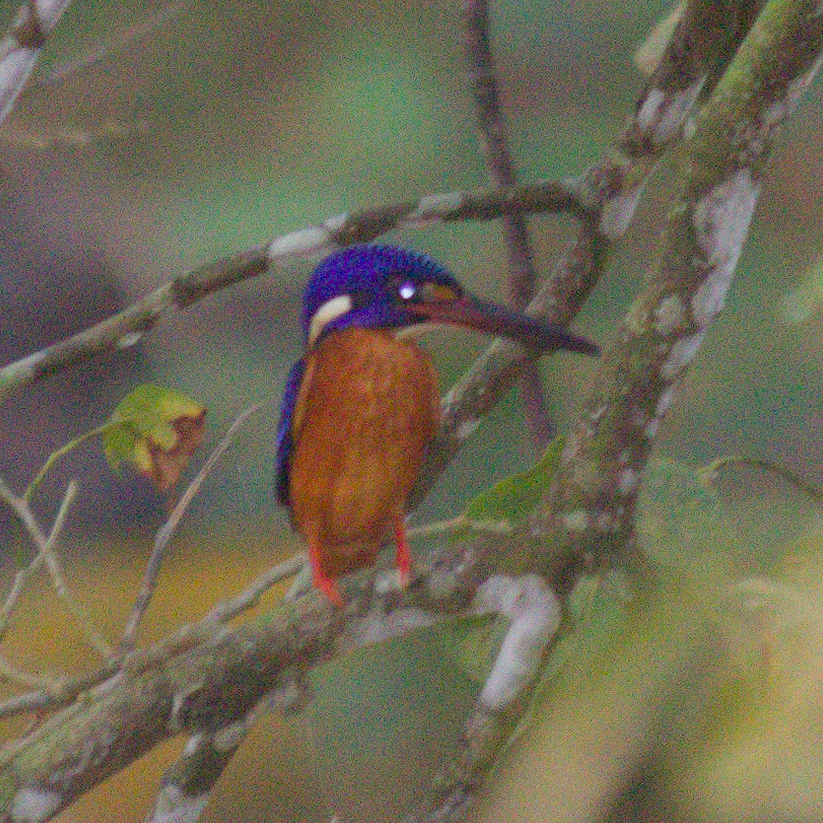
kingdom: Animalia
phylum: Chordata
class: Aves
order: Coraciiformes
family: Alcedinidae
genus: Alcedo
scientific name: Alcedo meninting
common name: Blue-eared kingfisher
